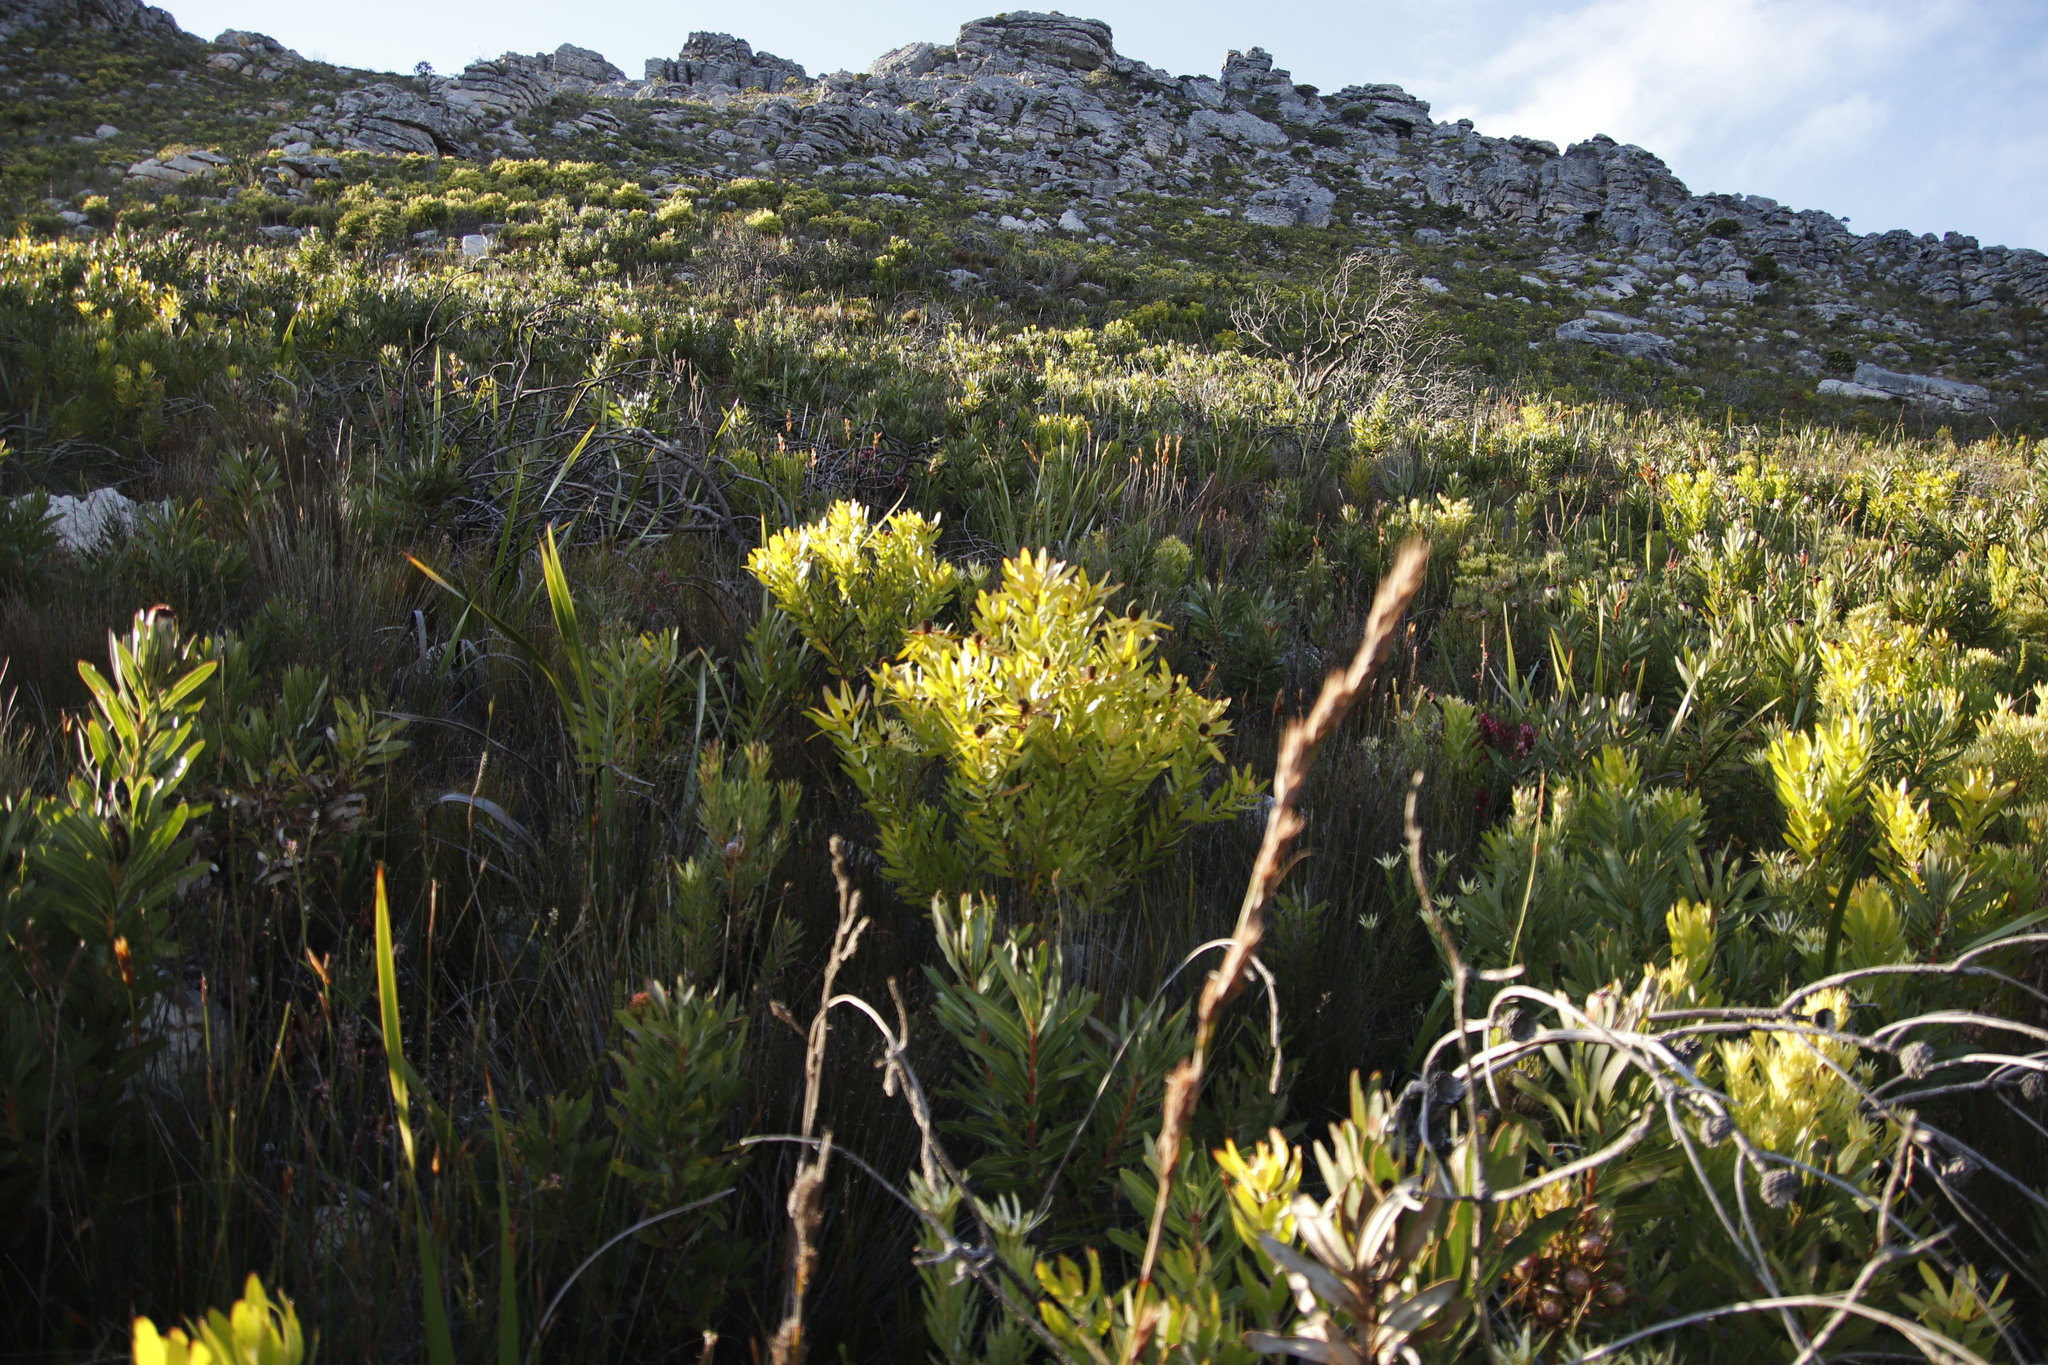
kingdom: Plantae
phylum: Tracheophyta
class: Magnoliopsida
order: Proteales
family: Proteaceae
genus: Leucadendron
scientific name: Leucadendron laureolum
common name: Golden sunshinebush
